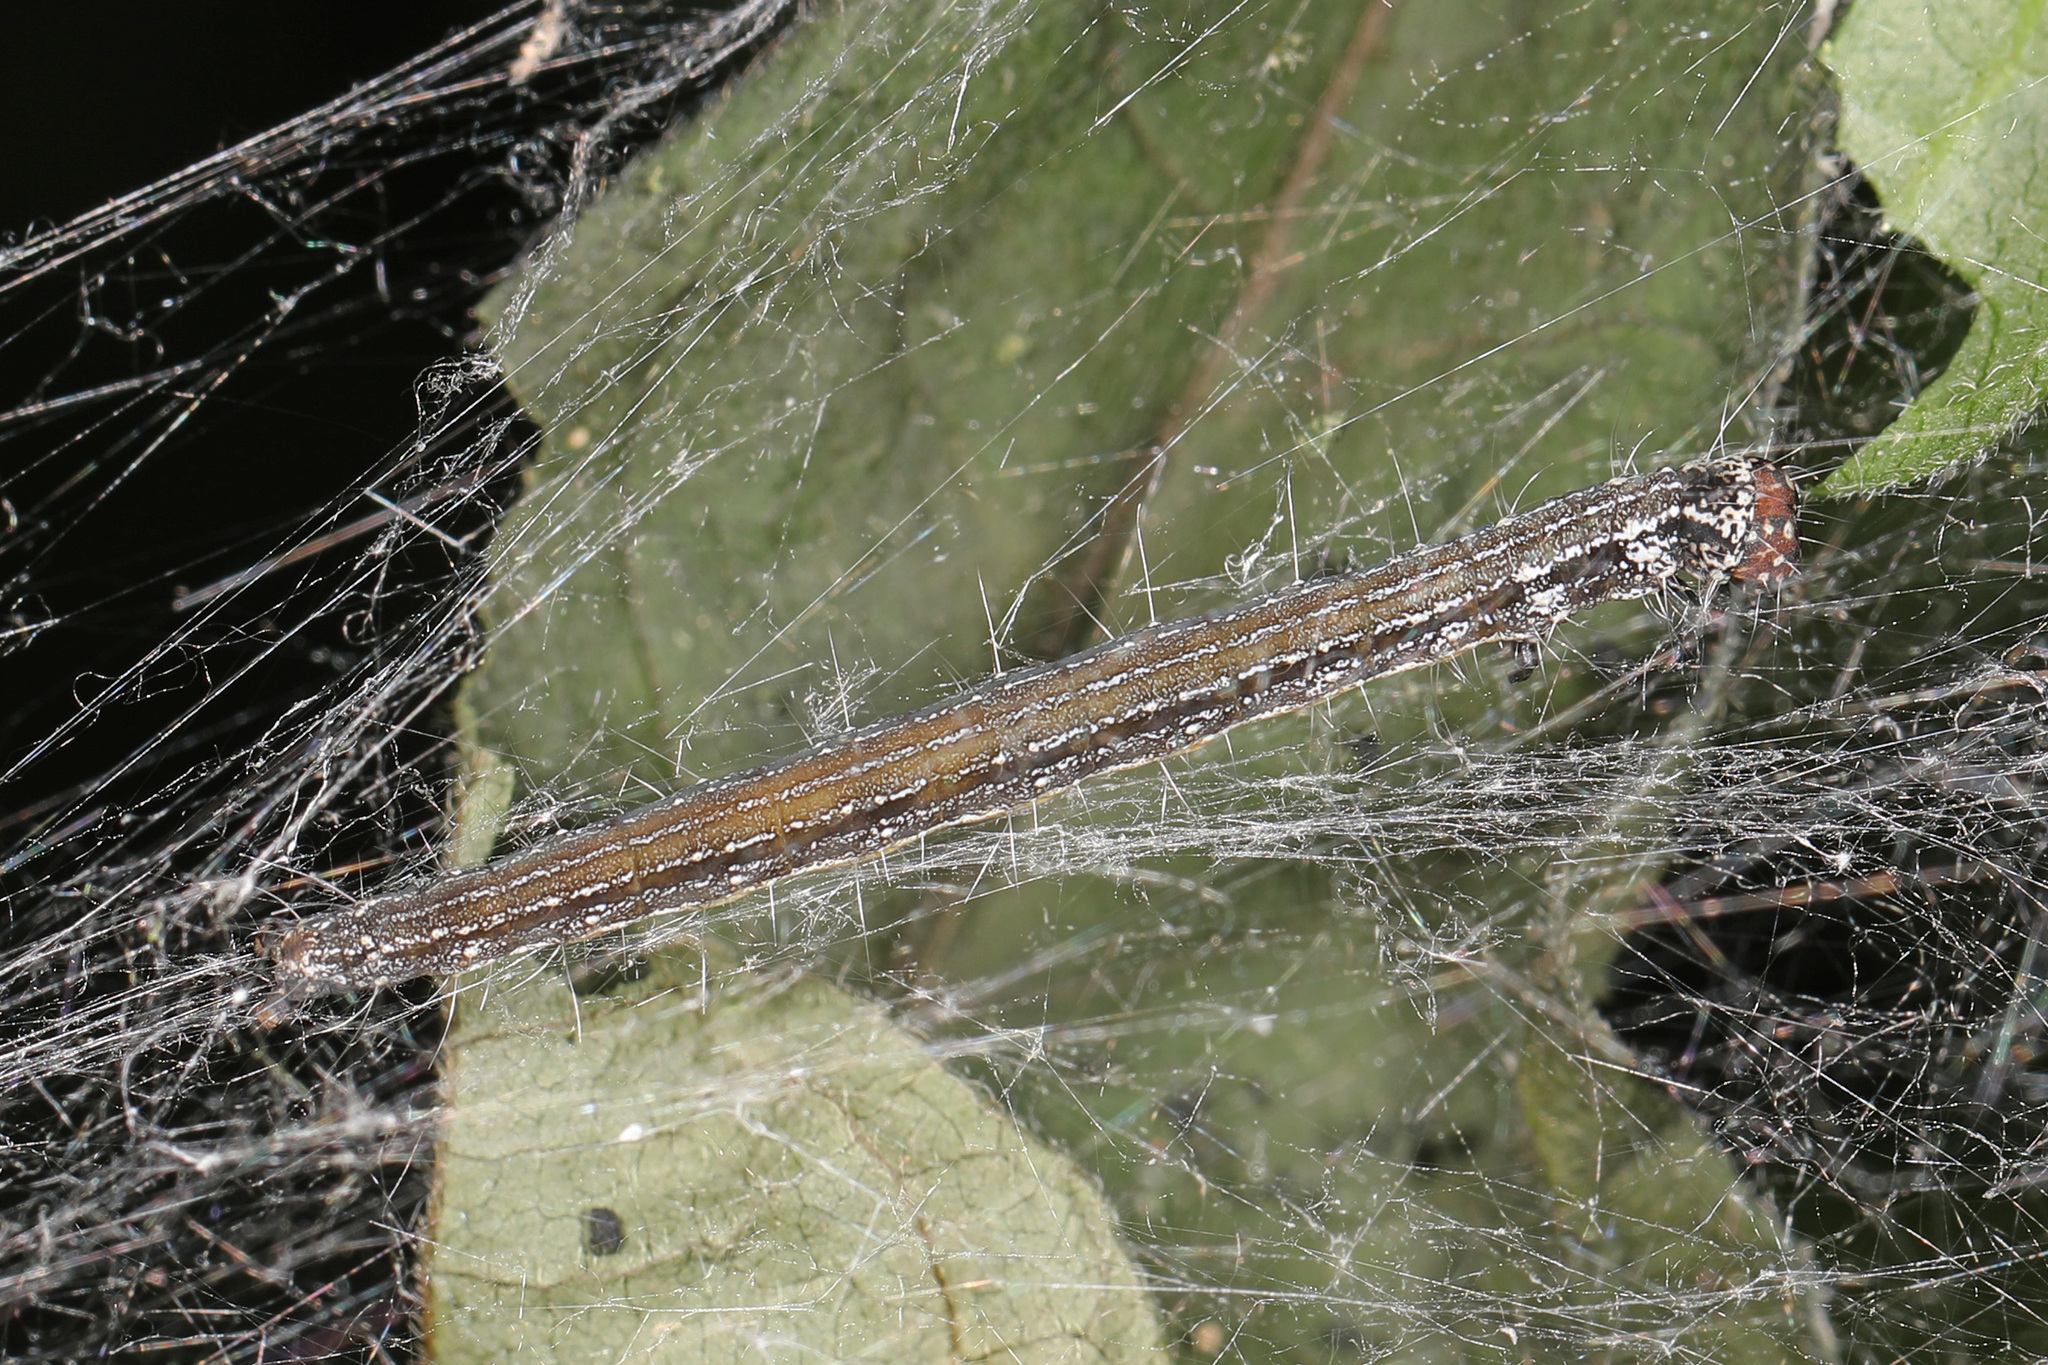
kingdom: Animalia
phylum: Arthropoda
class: Insecta
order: Lepidoptera
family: Attevidae
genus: Atteva
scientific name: Atteva punctella
